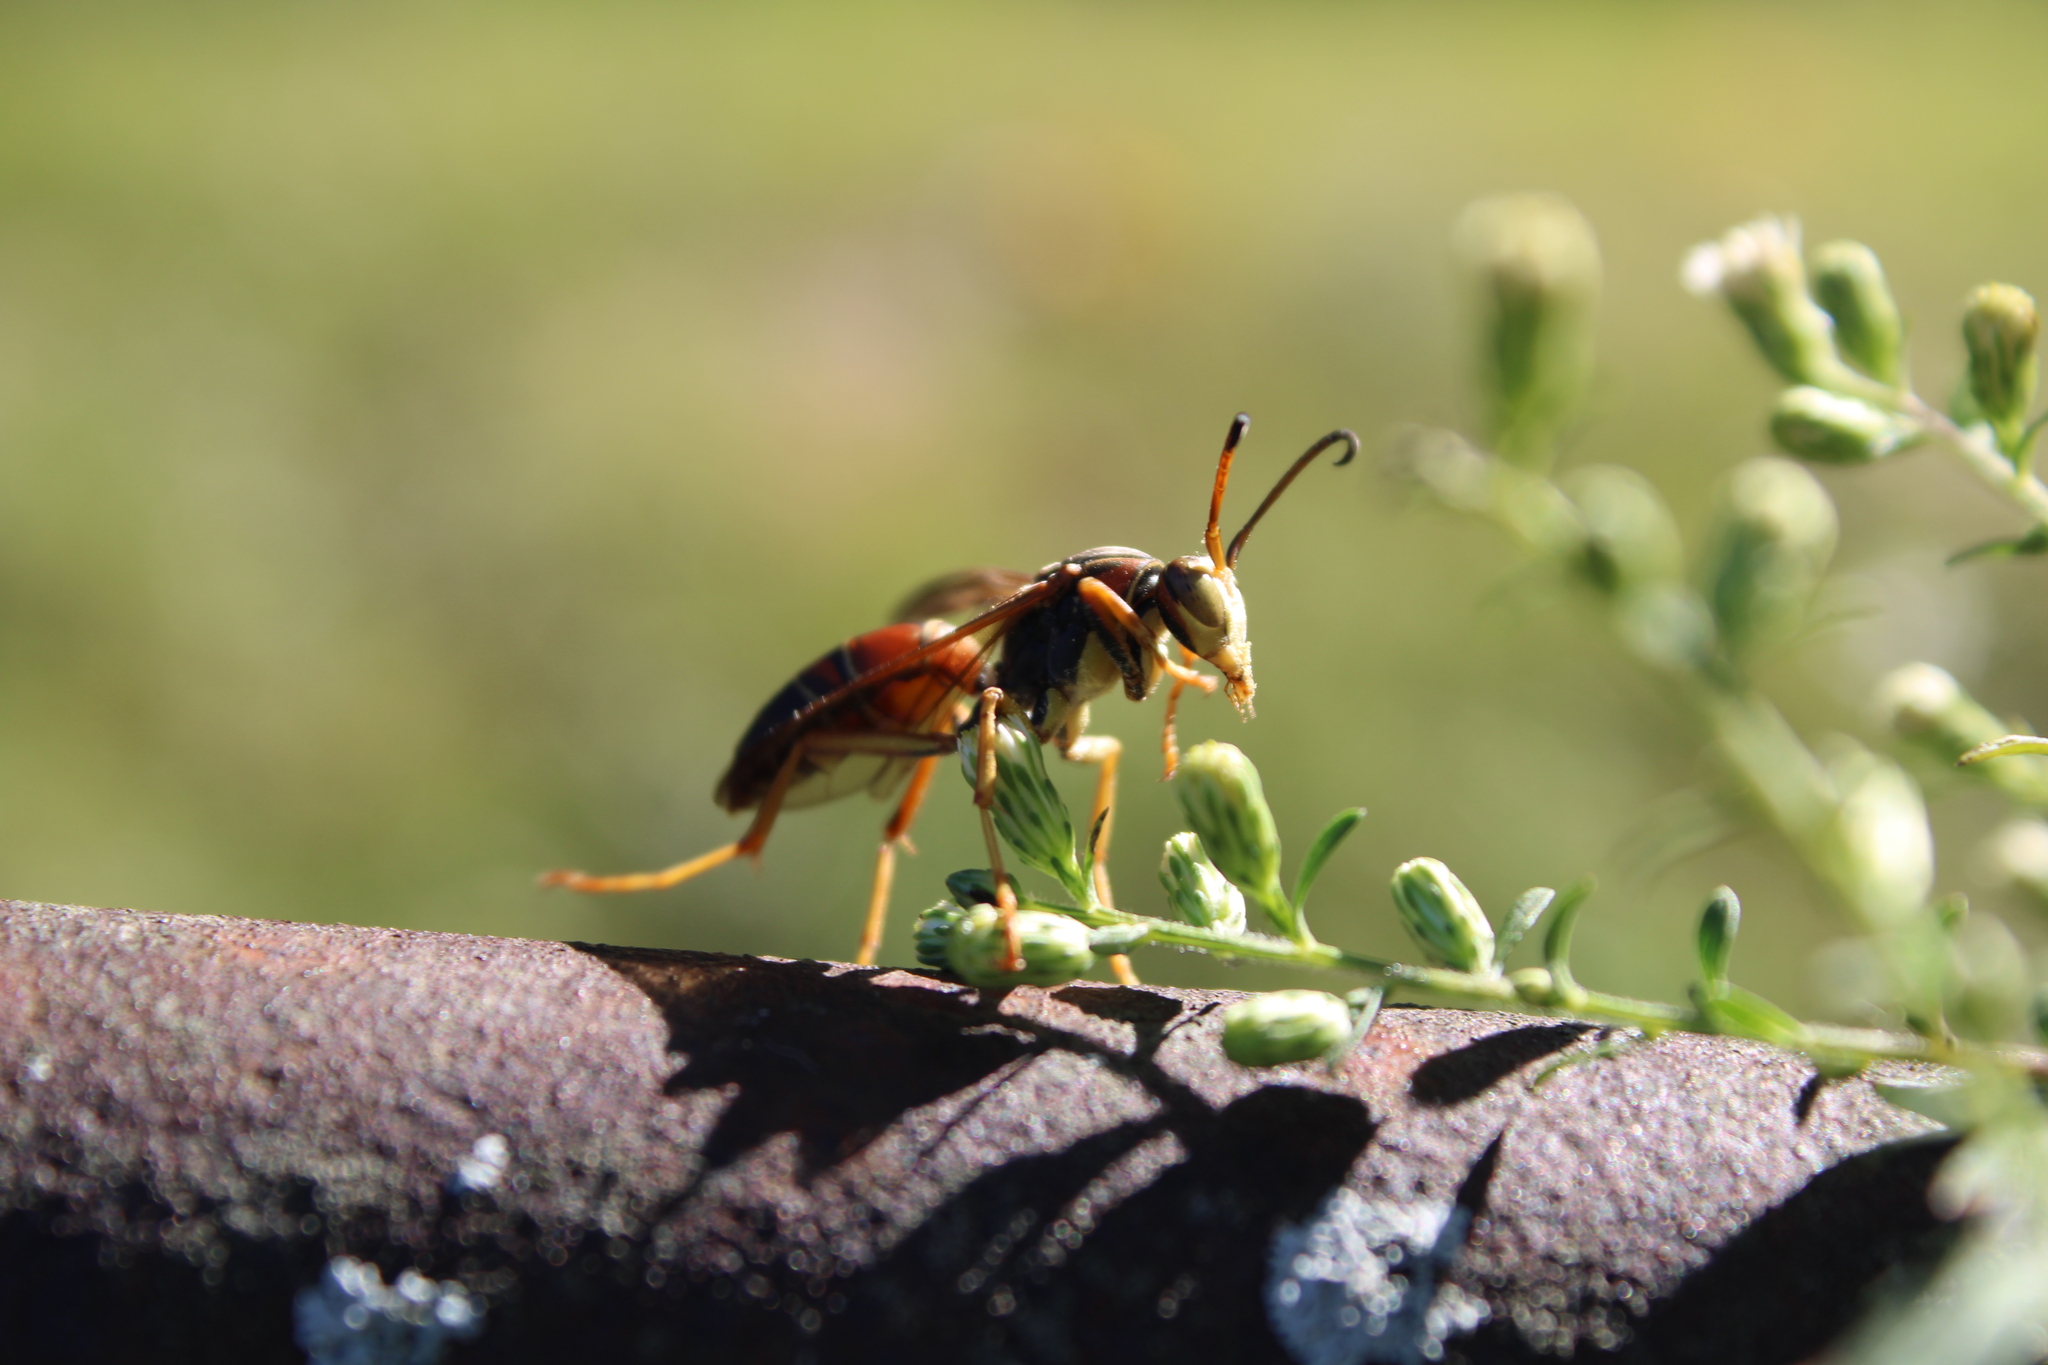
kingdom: Animalia
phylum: Arthropoda
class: Insecta
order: Hymenoptera
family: Eumenidae
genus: Polistes
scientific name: Polistes fuscatus
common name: Dark paper wasp
